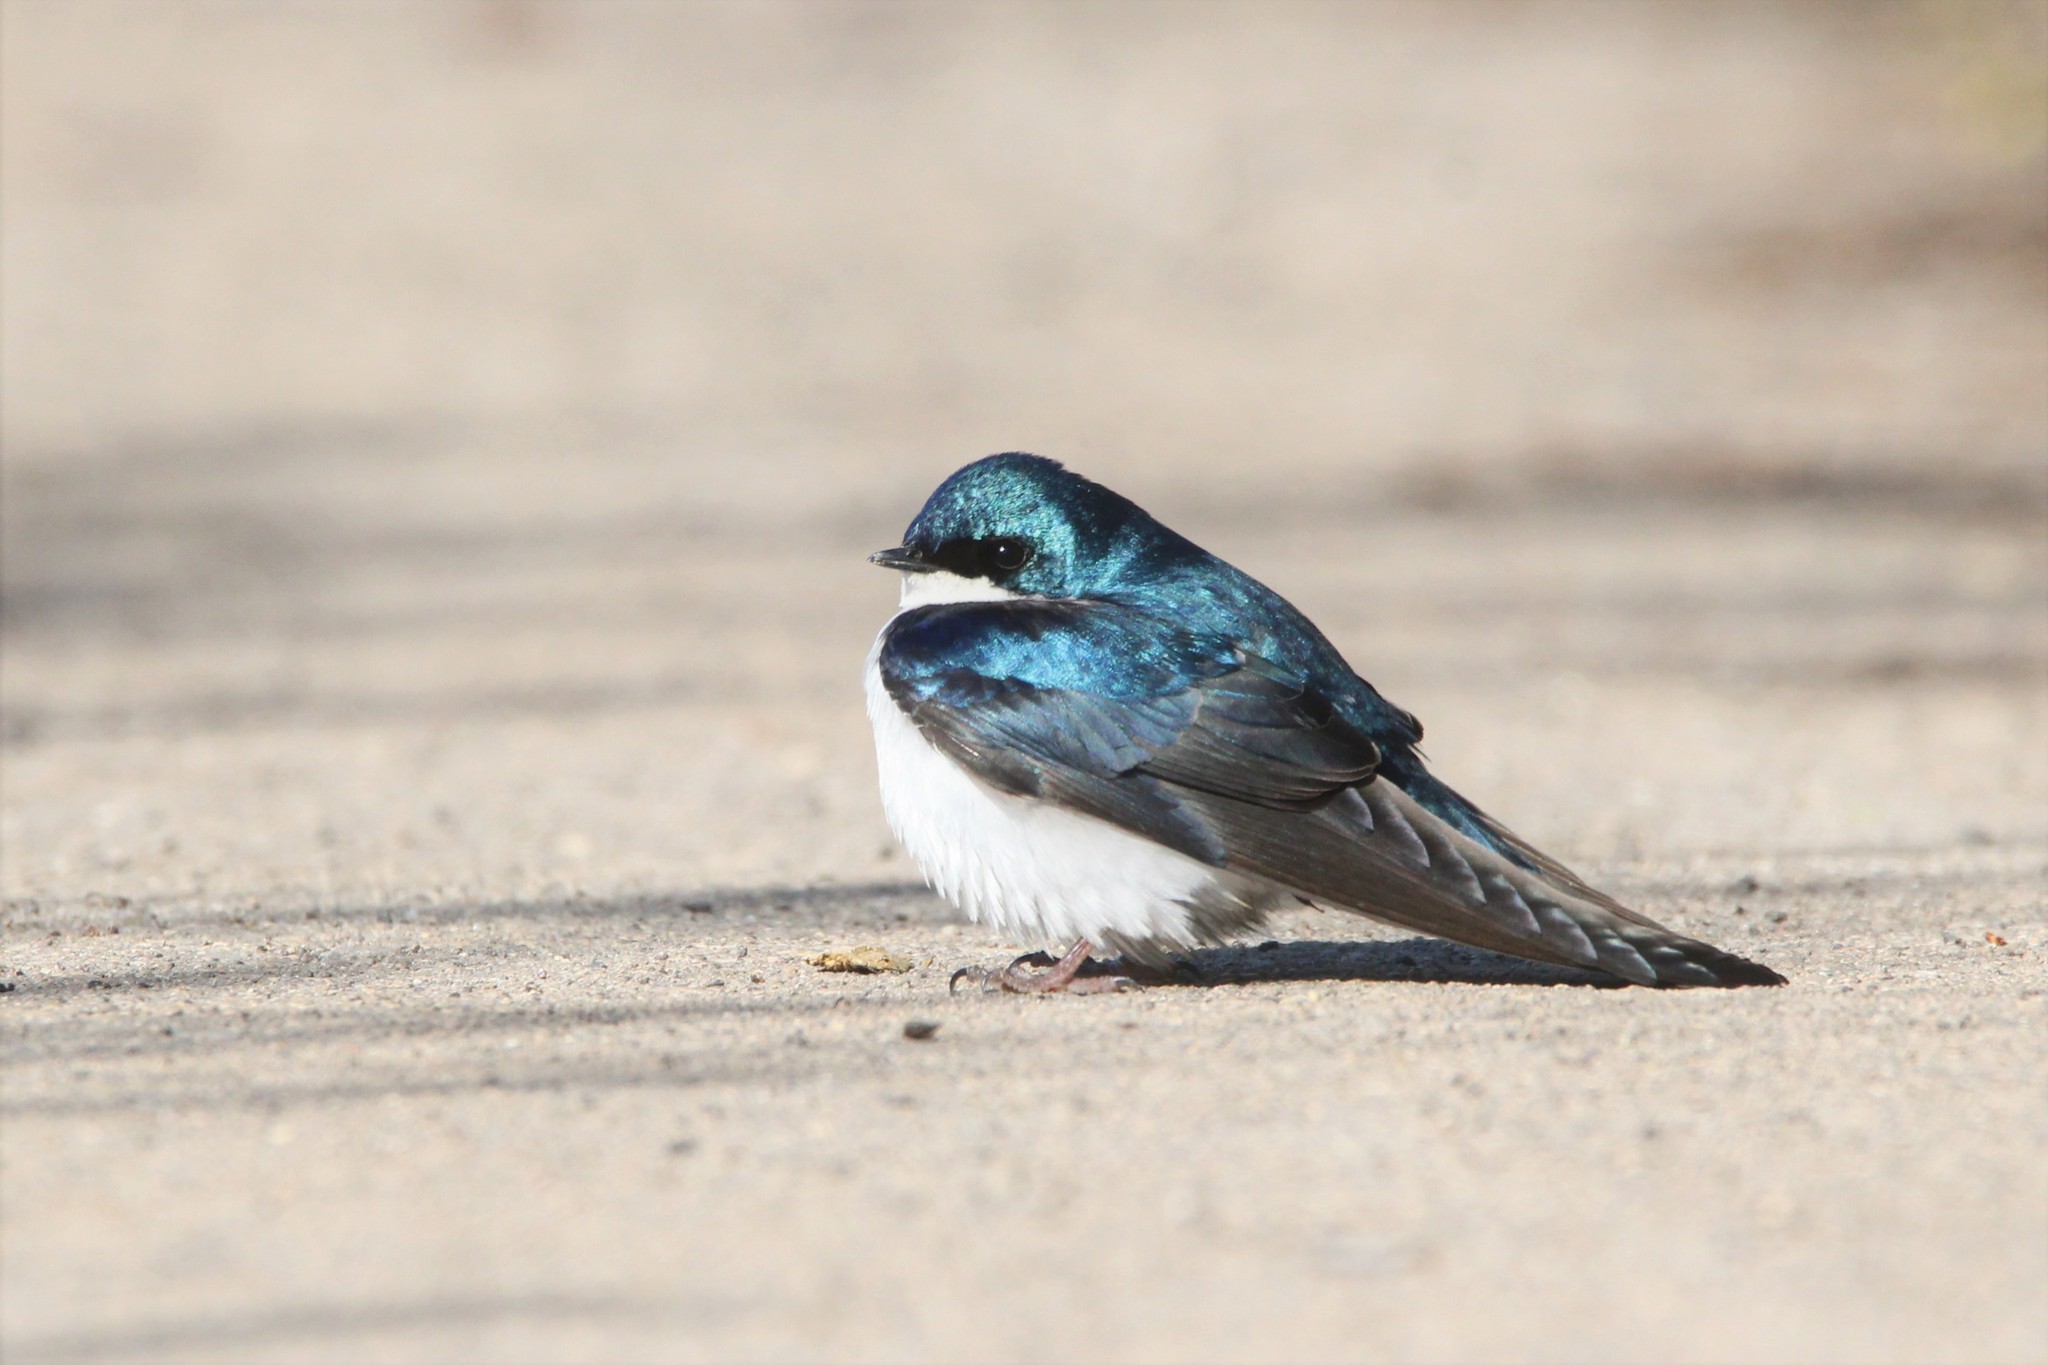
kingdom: Animalia
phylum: Chordata
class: Aves
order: Passeriformes
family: Hirundinidae
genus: Tachycineta
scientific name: Tachycineta bicolor
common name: Tree swallow
